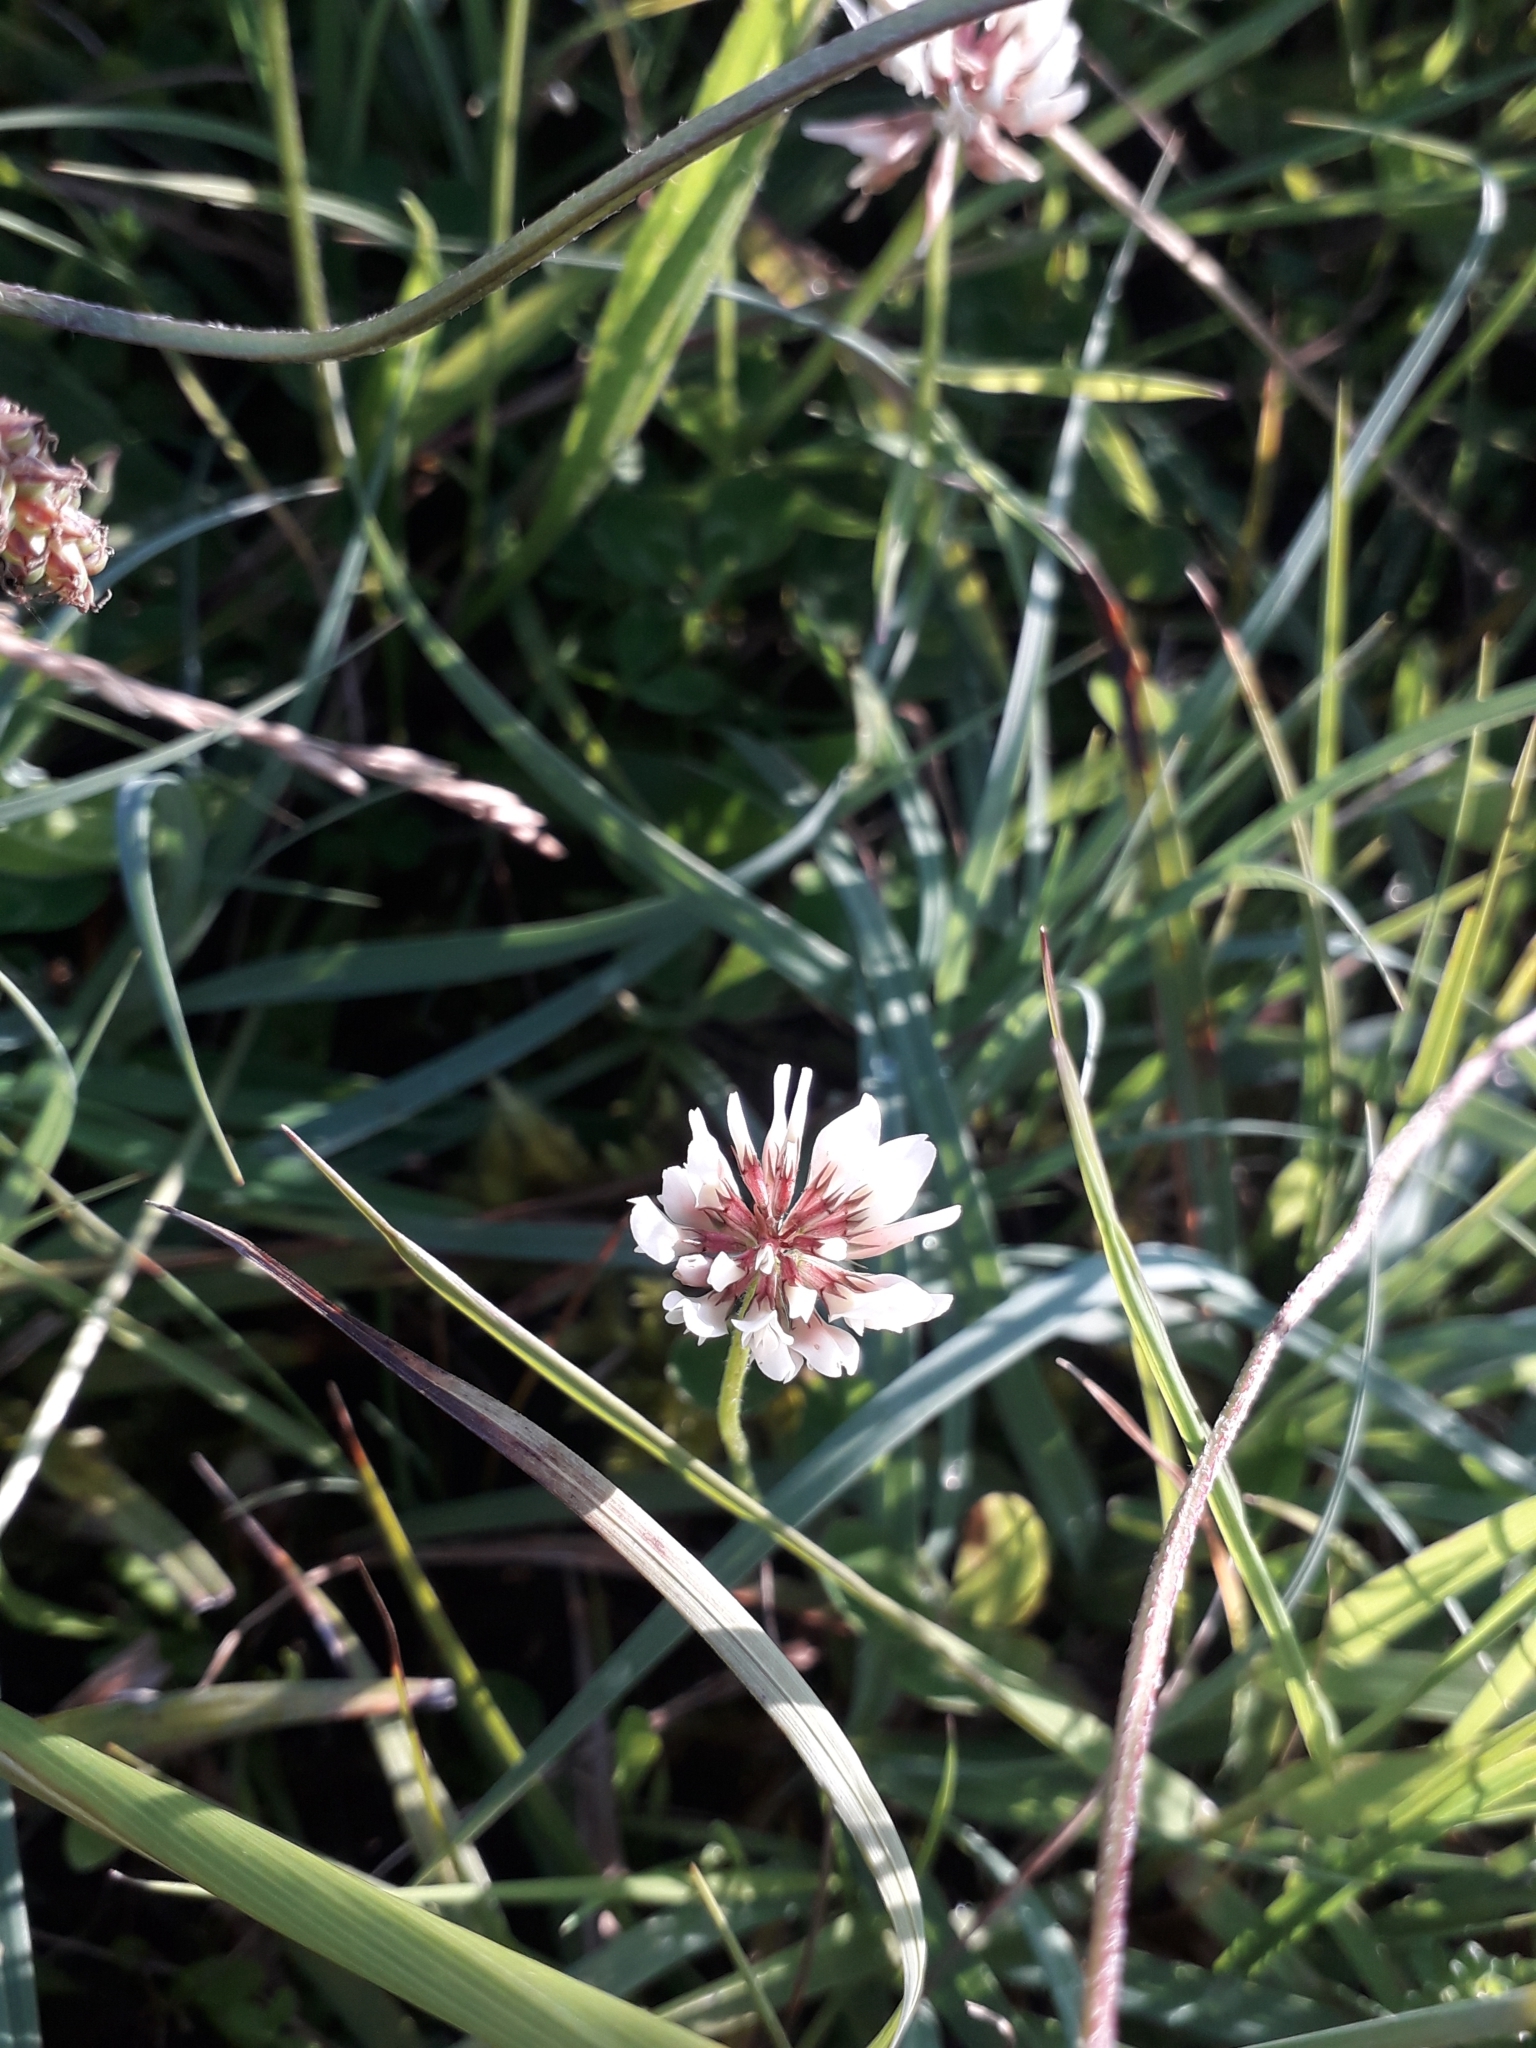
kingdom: Plantae
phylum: Tracheophyta
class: Magnoliopsida
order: Fabales
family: Fabaceae
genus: Trifolium
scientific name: Trifolium repens
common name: White clover
